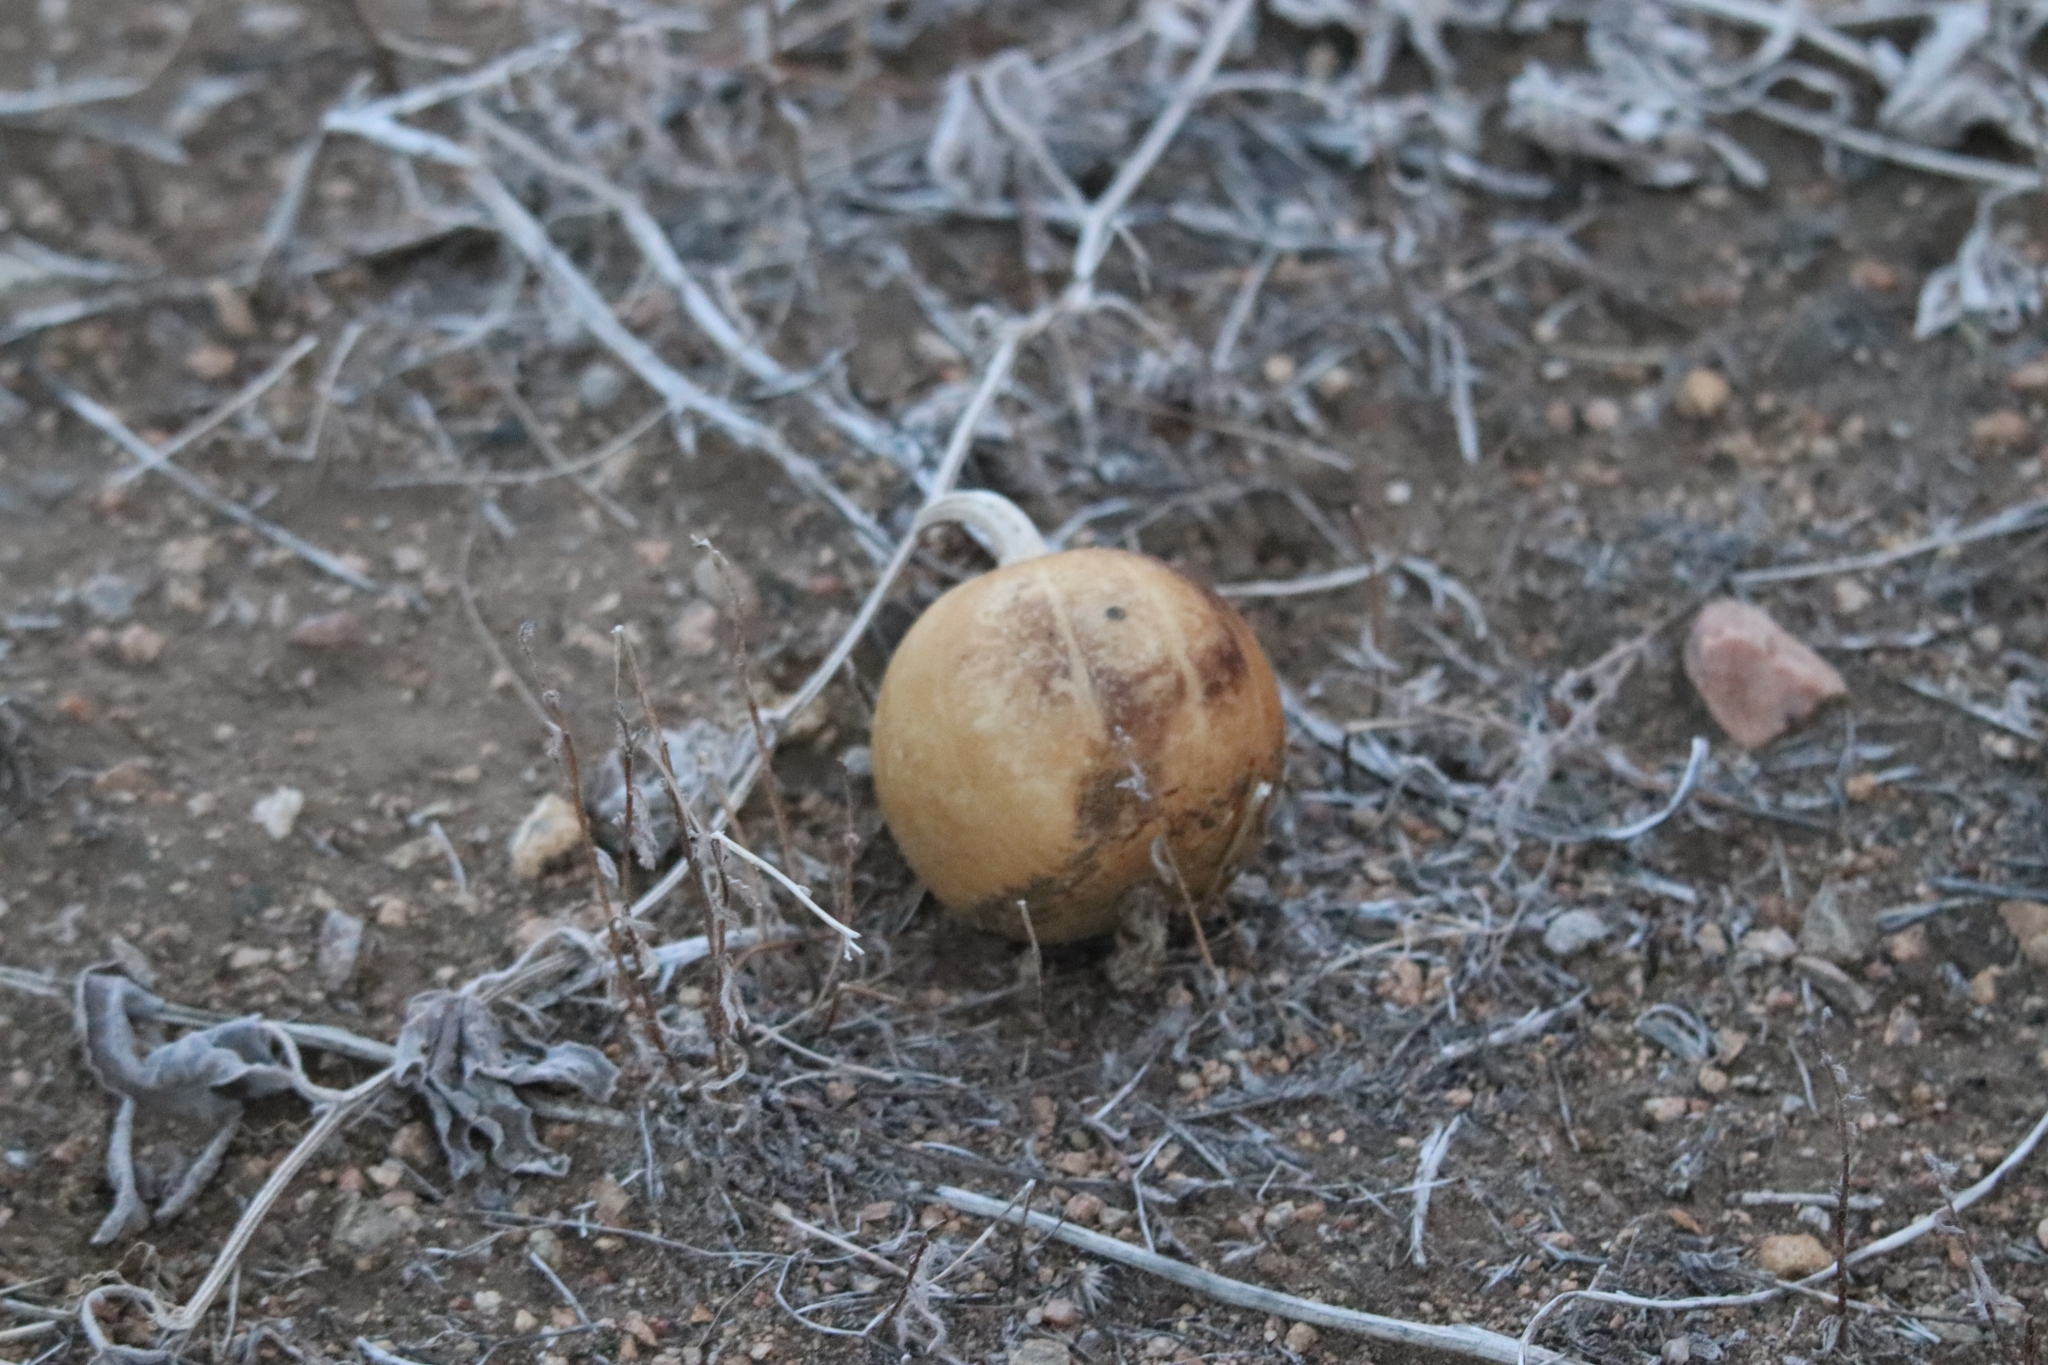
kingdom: Plantae
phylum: Tracheophyta
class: Magnoliopsida
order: Cucurbitales
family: Cucurbitaceae
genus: Cucurbita
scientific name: Cucurbita palmata
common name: Coyote-melon
